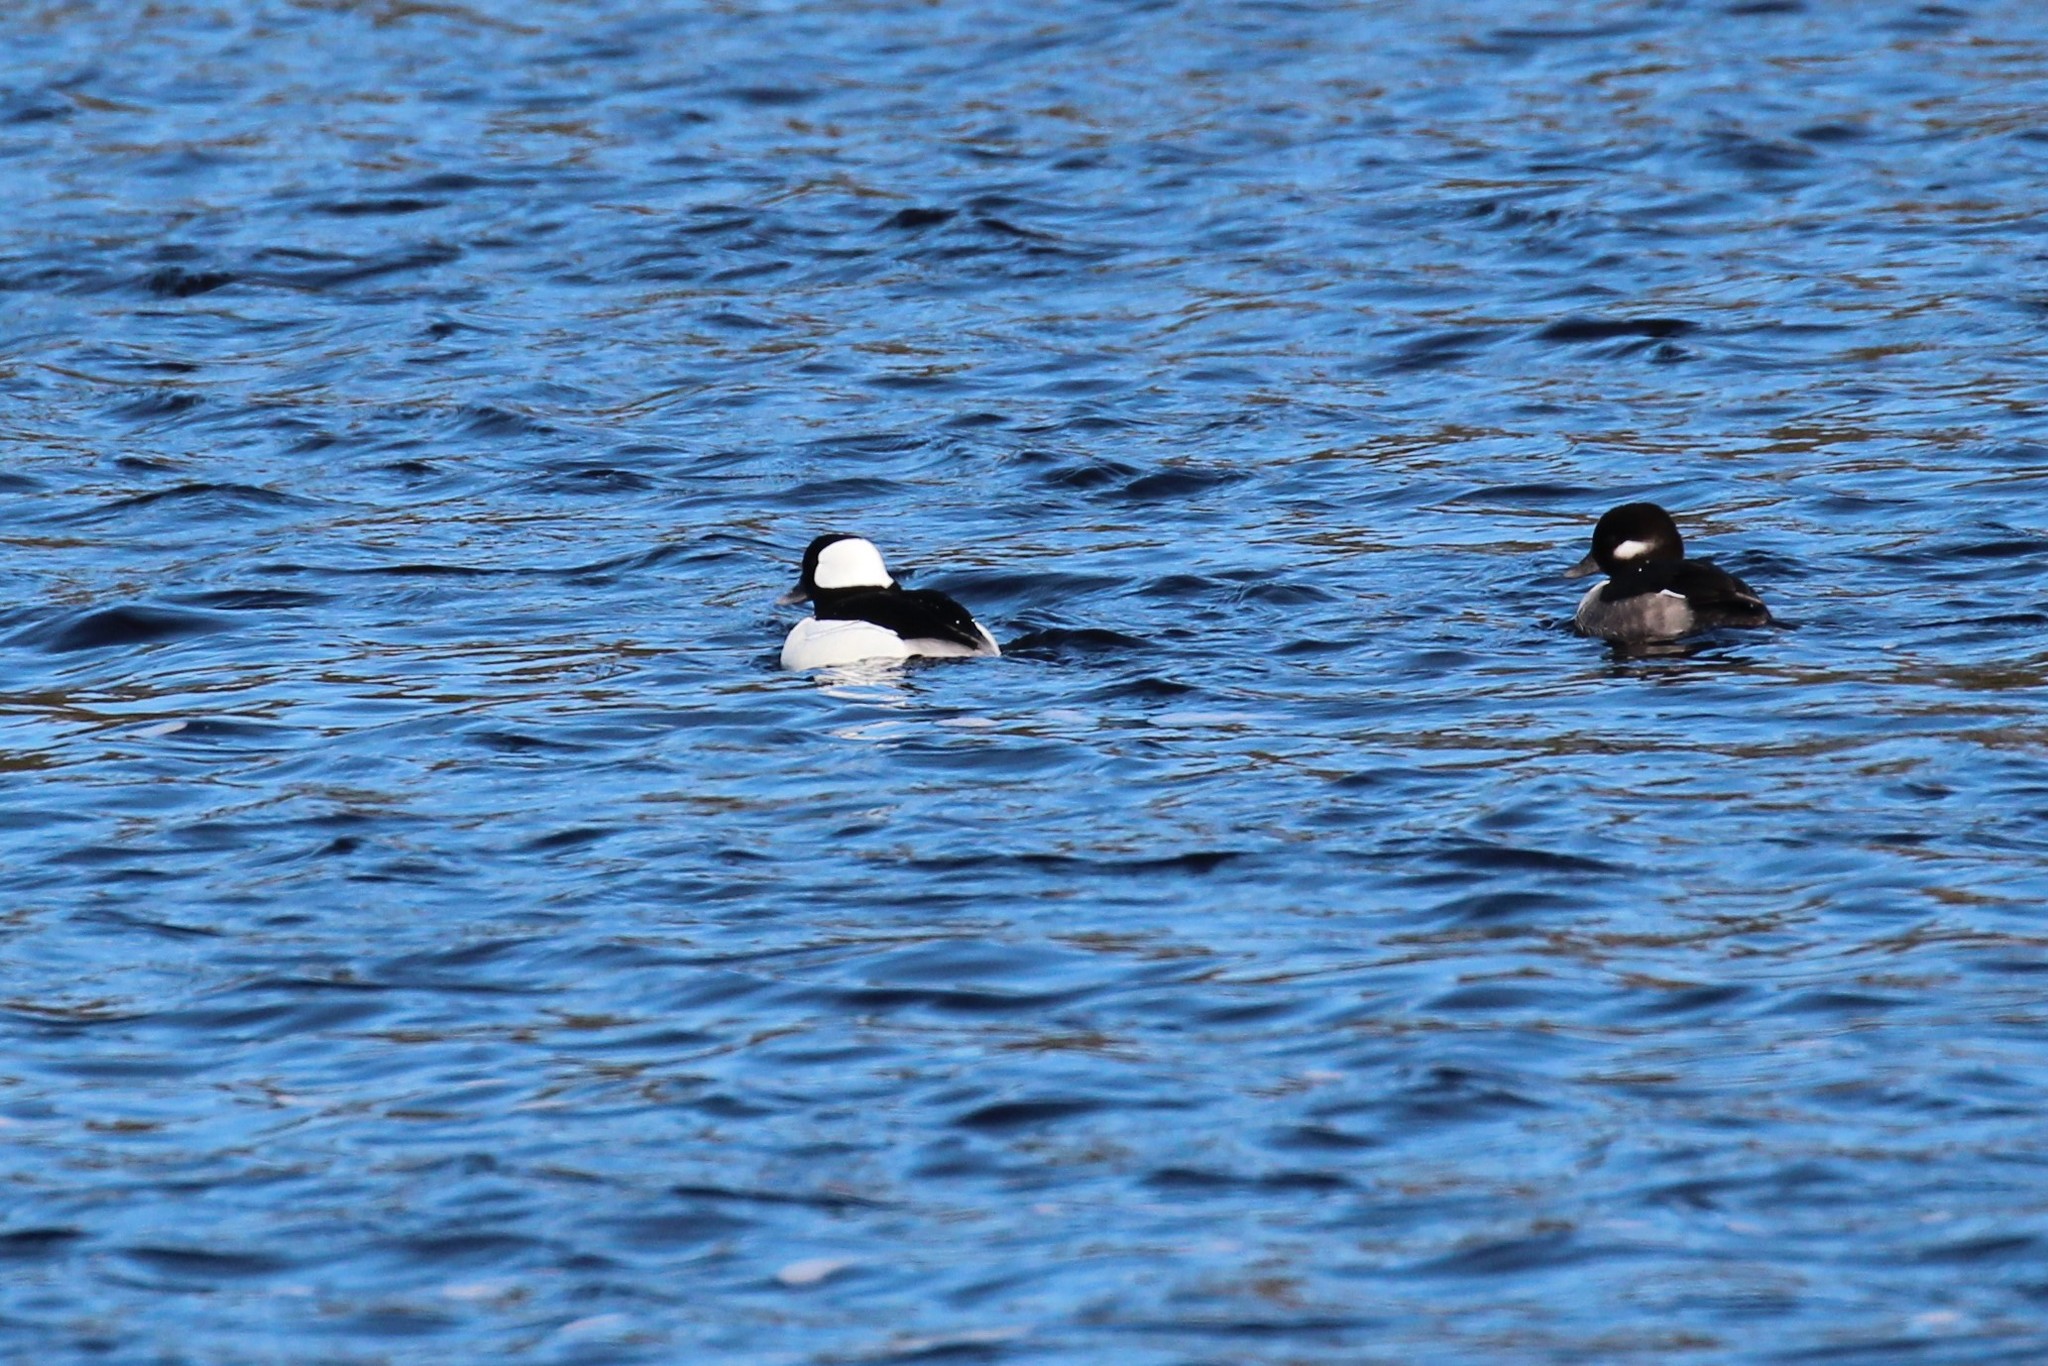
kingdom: Animalia
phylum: Chordata
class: Aves
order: Anseriformes
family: Anatidae
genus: Bucephala
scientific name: Bucephala albeola
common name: Bufflehead
